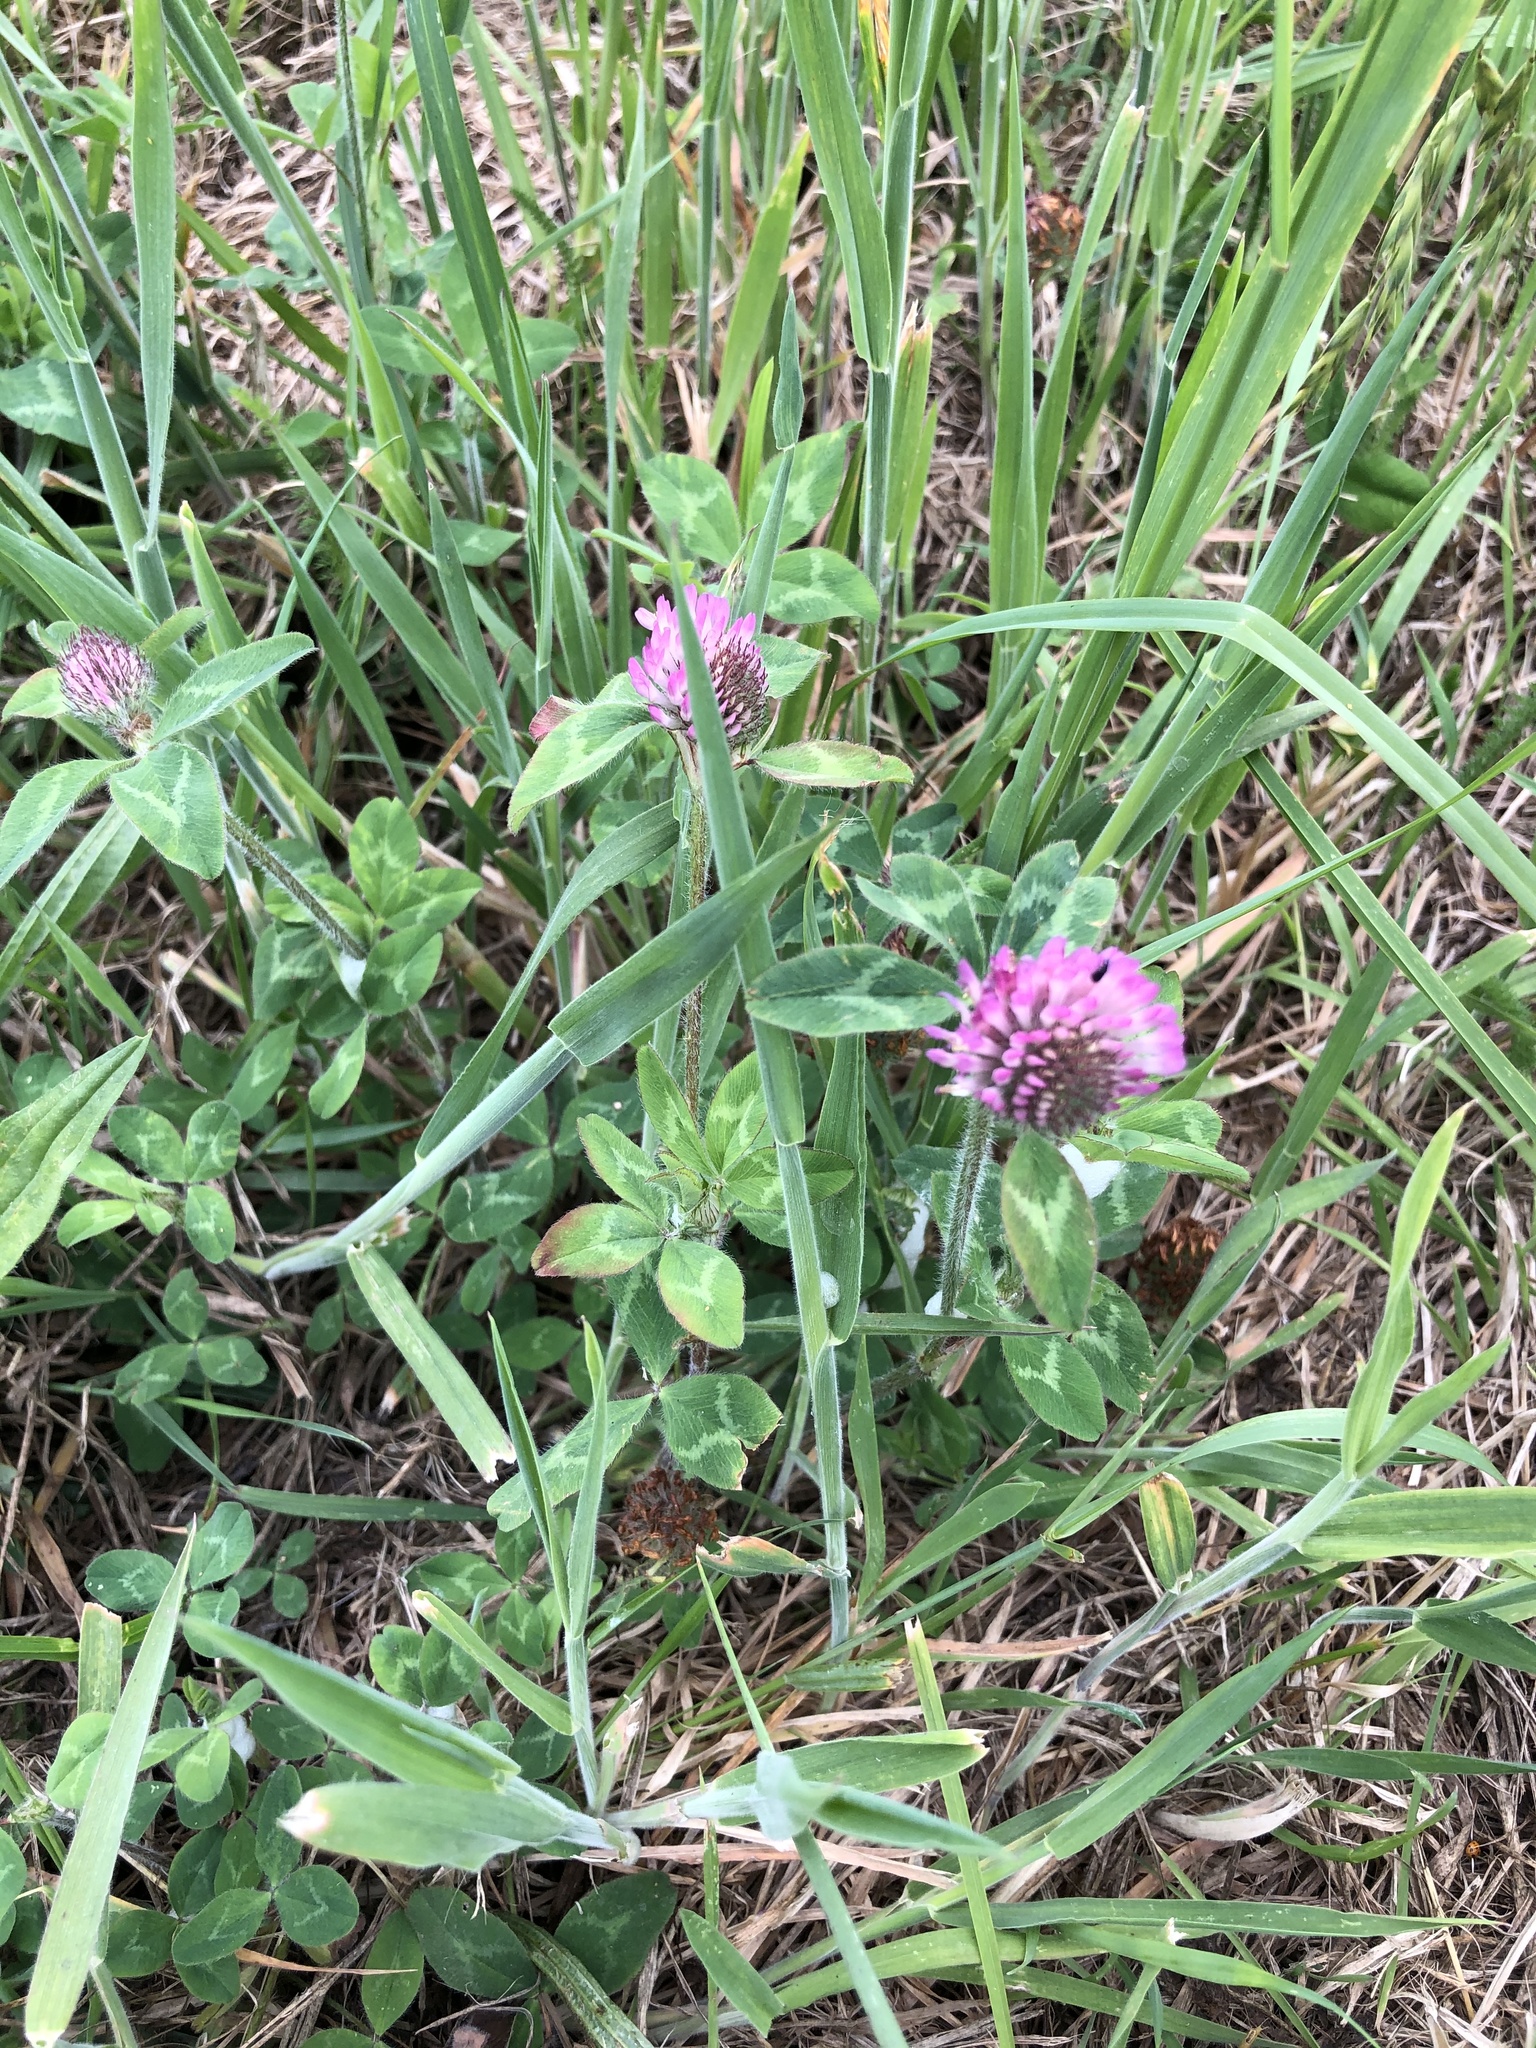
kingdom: Plantae
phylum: Tracheophyta
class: Magnoliopsida
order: Fabales
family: Fabaceae
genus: Trifolium
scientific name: Trifolium pratense
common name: Red clover
